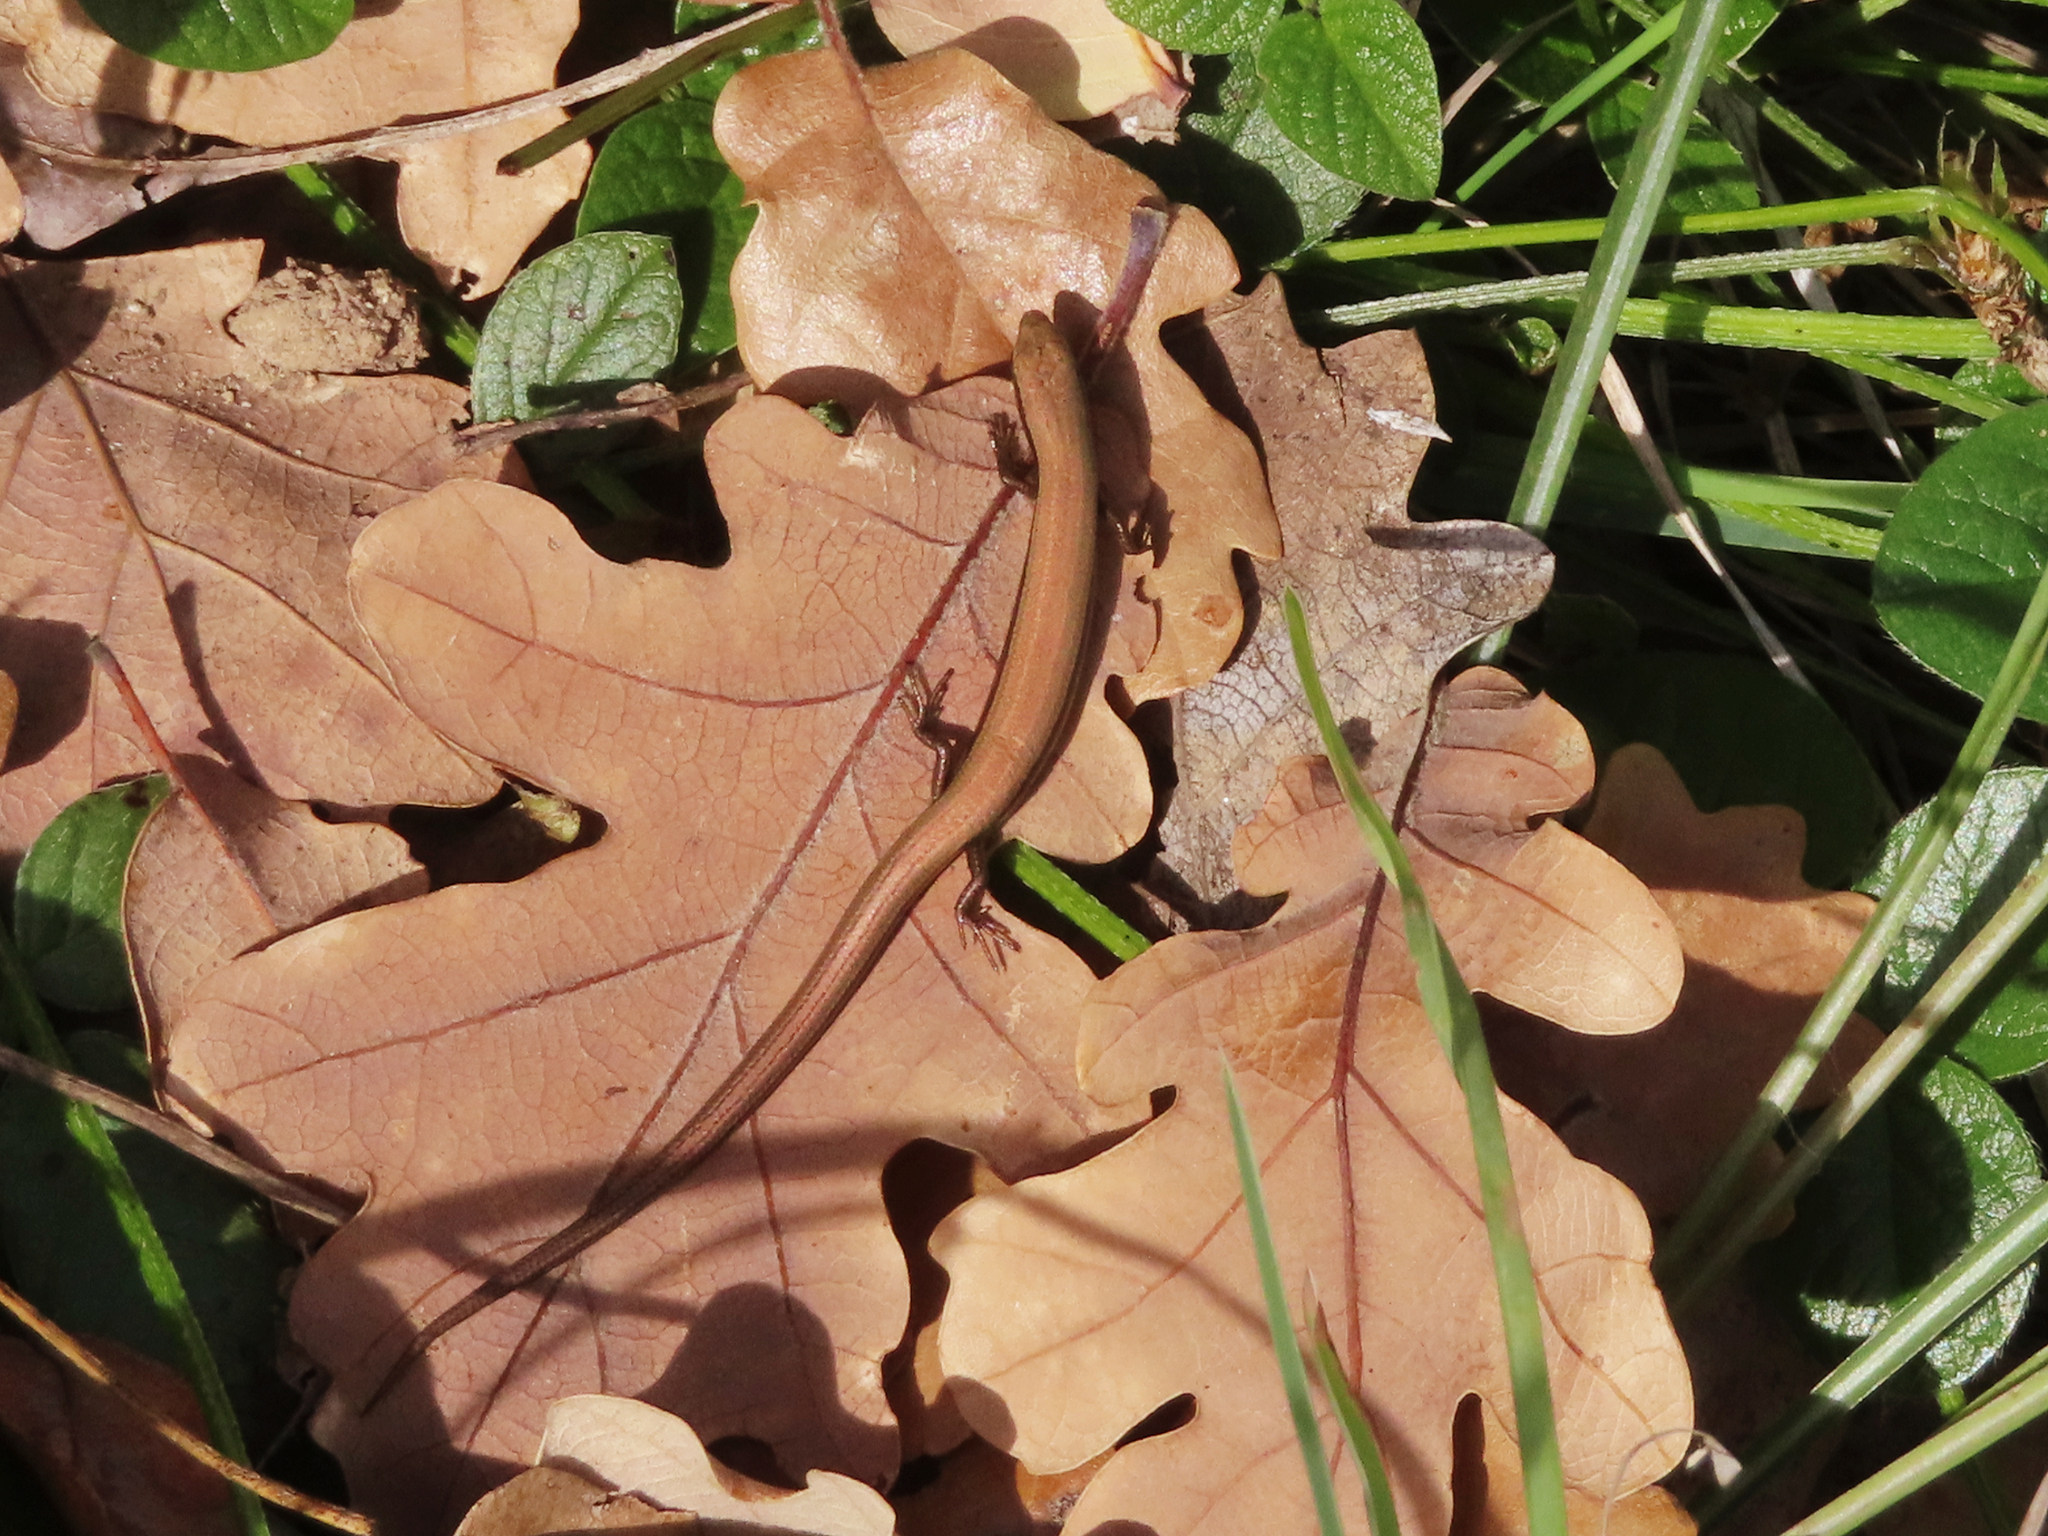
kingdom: Animalia
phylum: Chordata
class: Squamata
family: Scincidae
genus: Ablepharus
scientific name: Ablepharus kitaibelii
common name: Juniper skink
